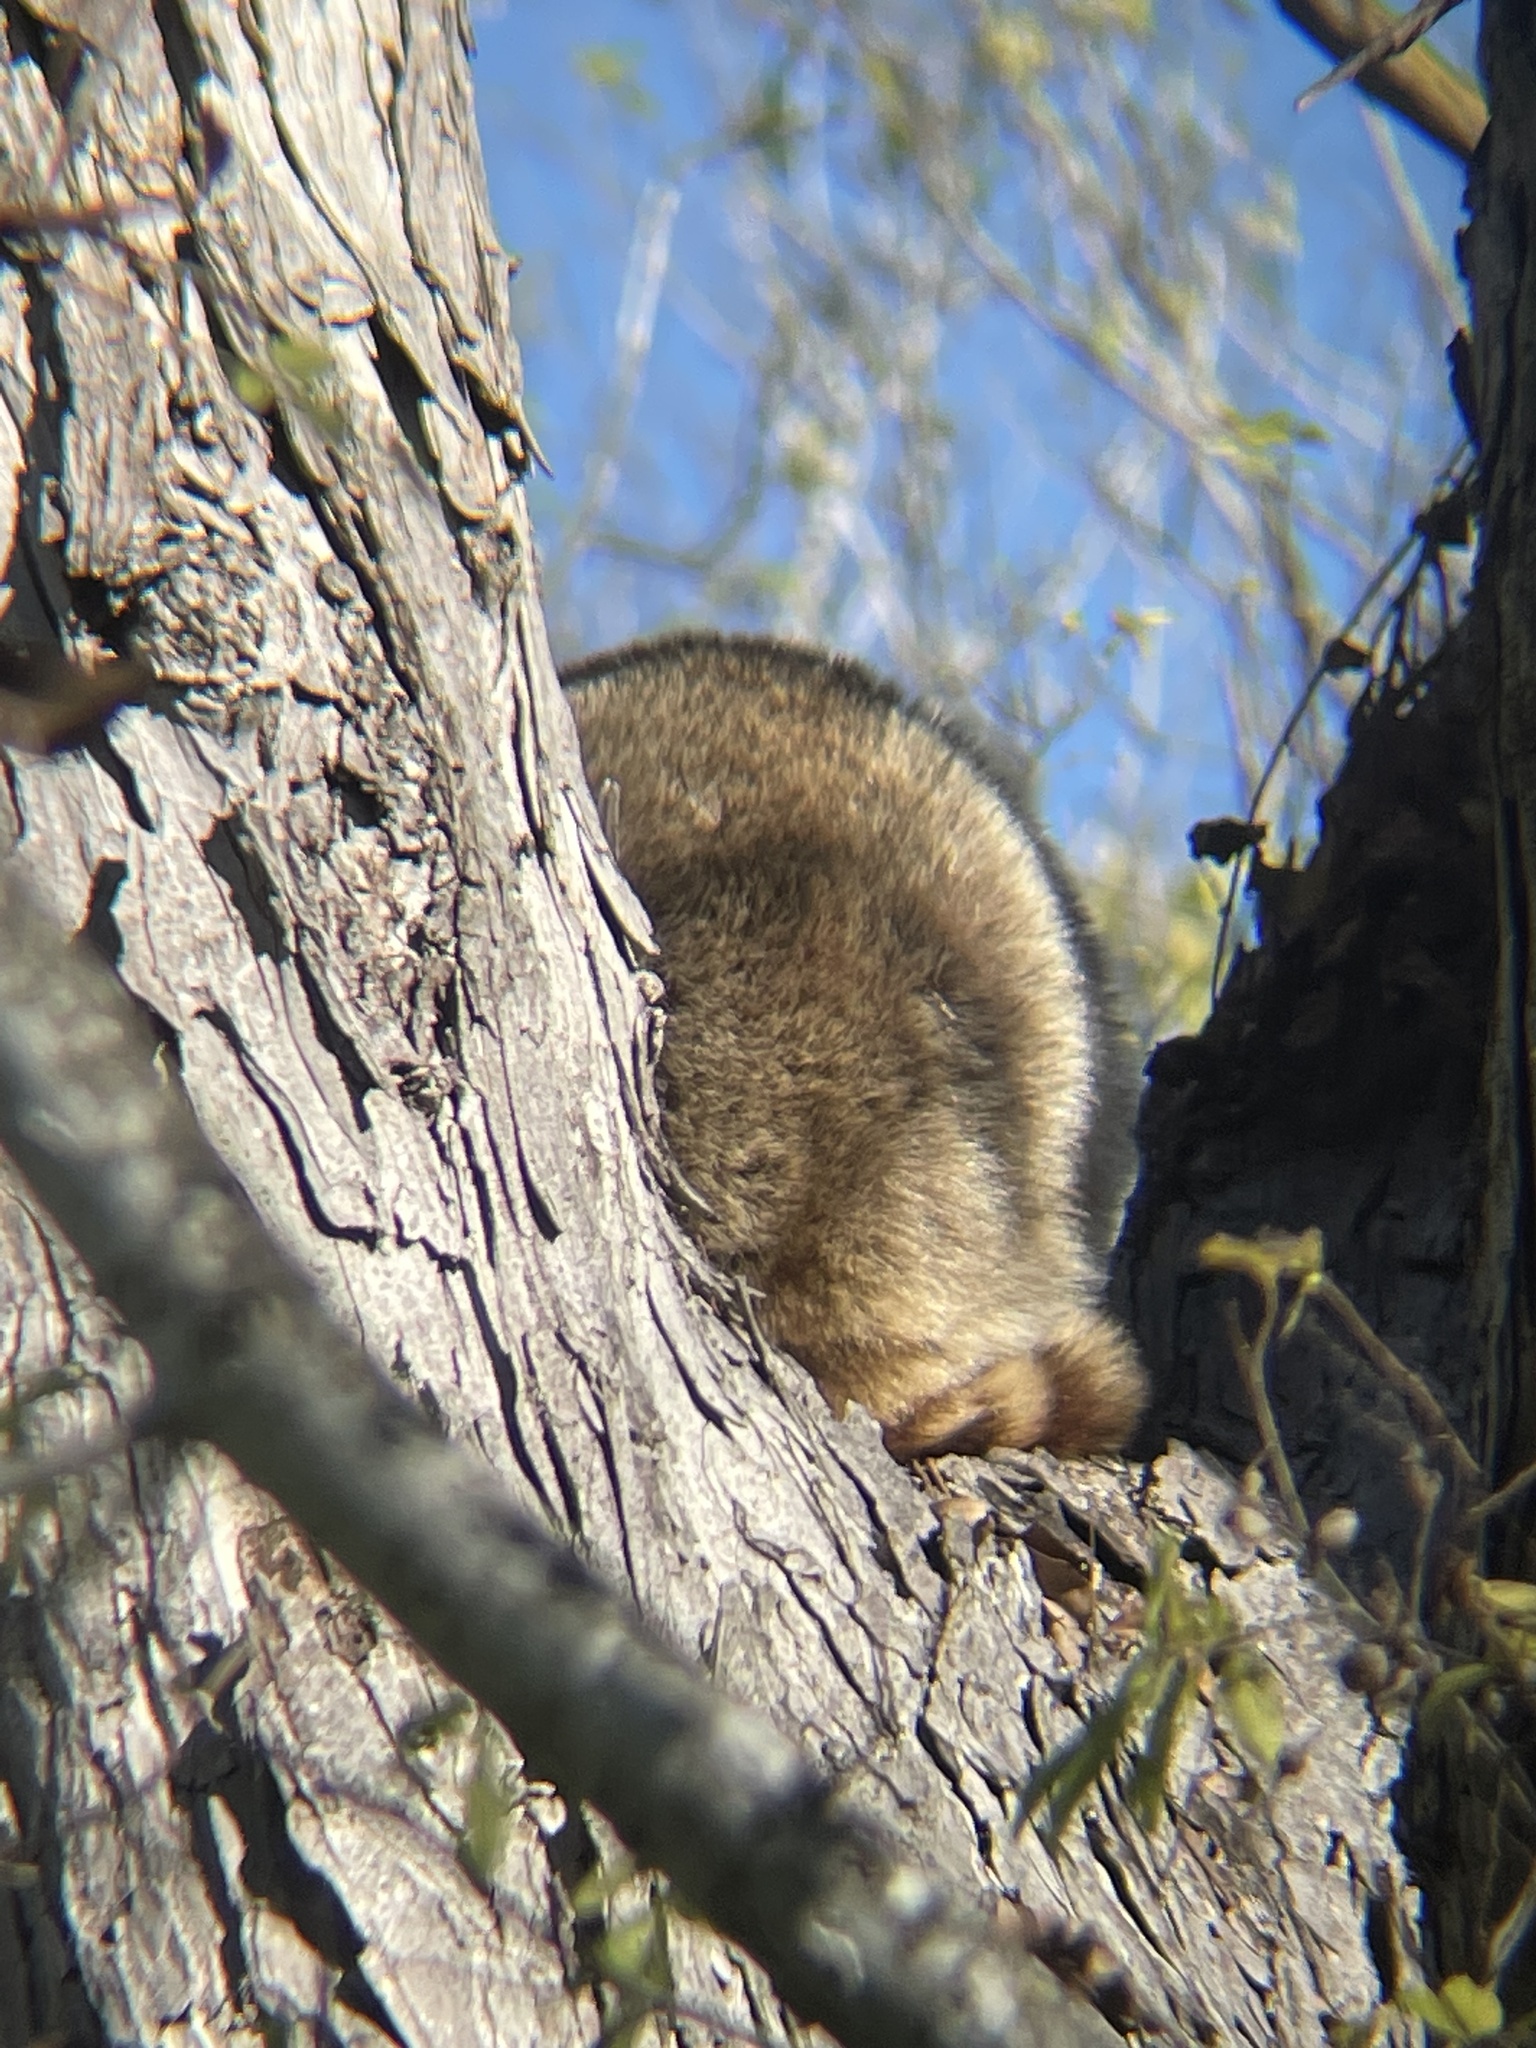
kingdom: Animalia
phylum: Chordata
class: Mammalia
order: Carnivora
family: Procyonidae
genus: Procyon
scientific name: Procyon lotor
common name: Raccoon
